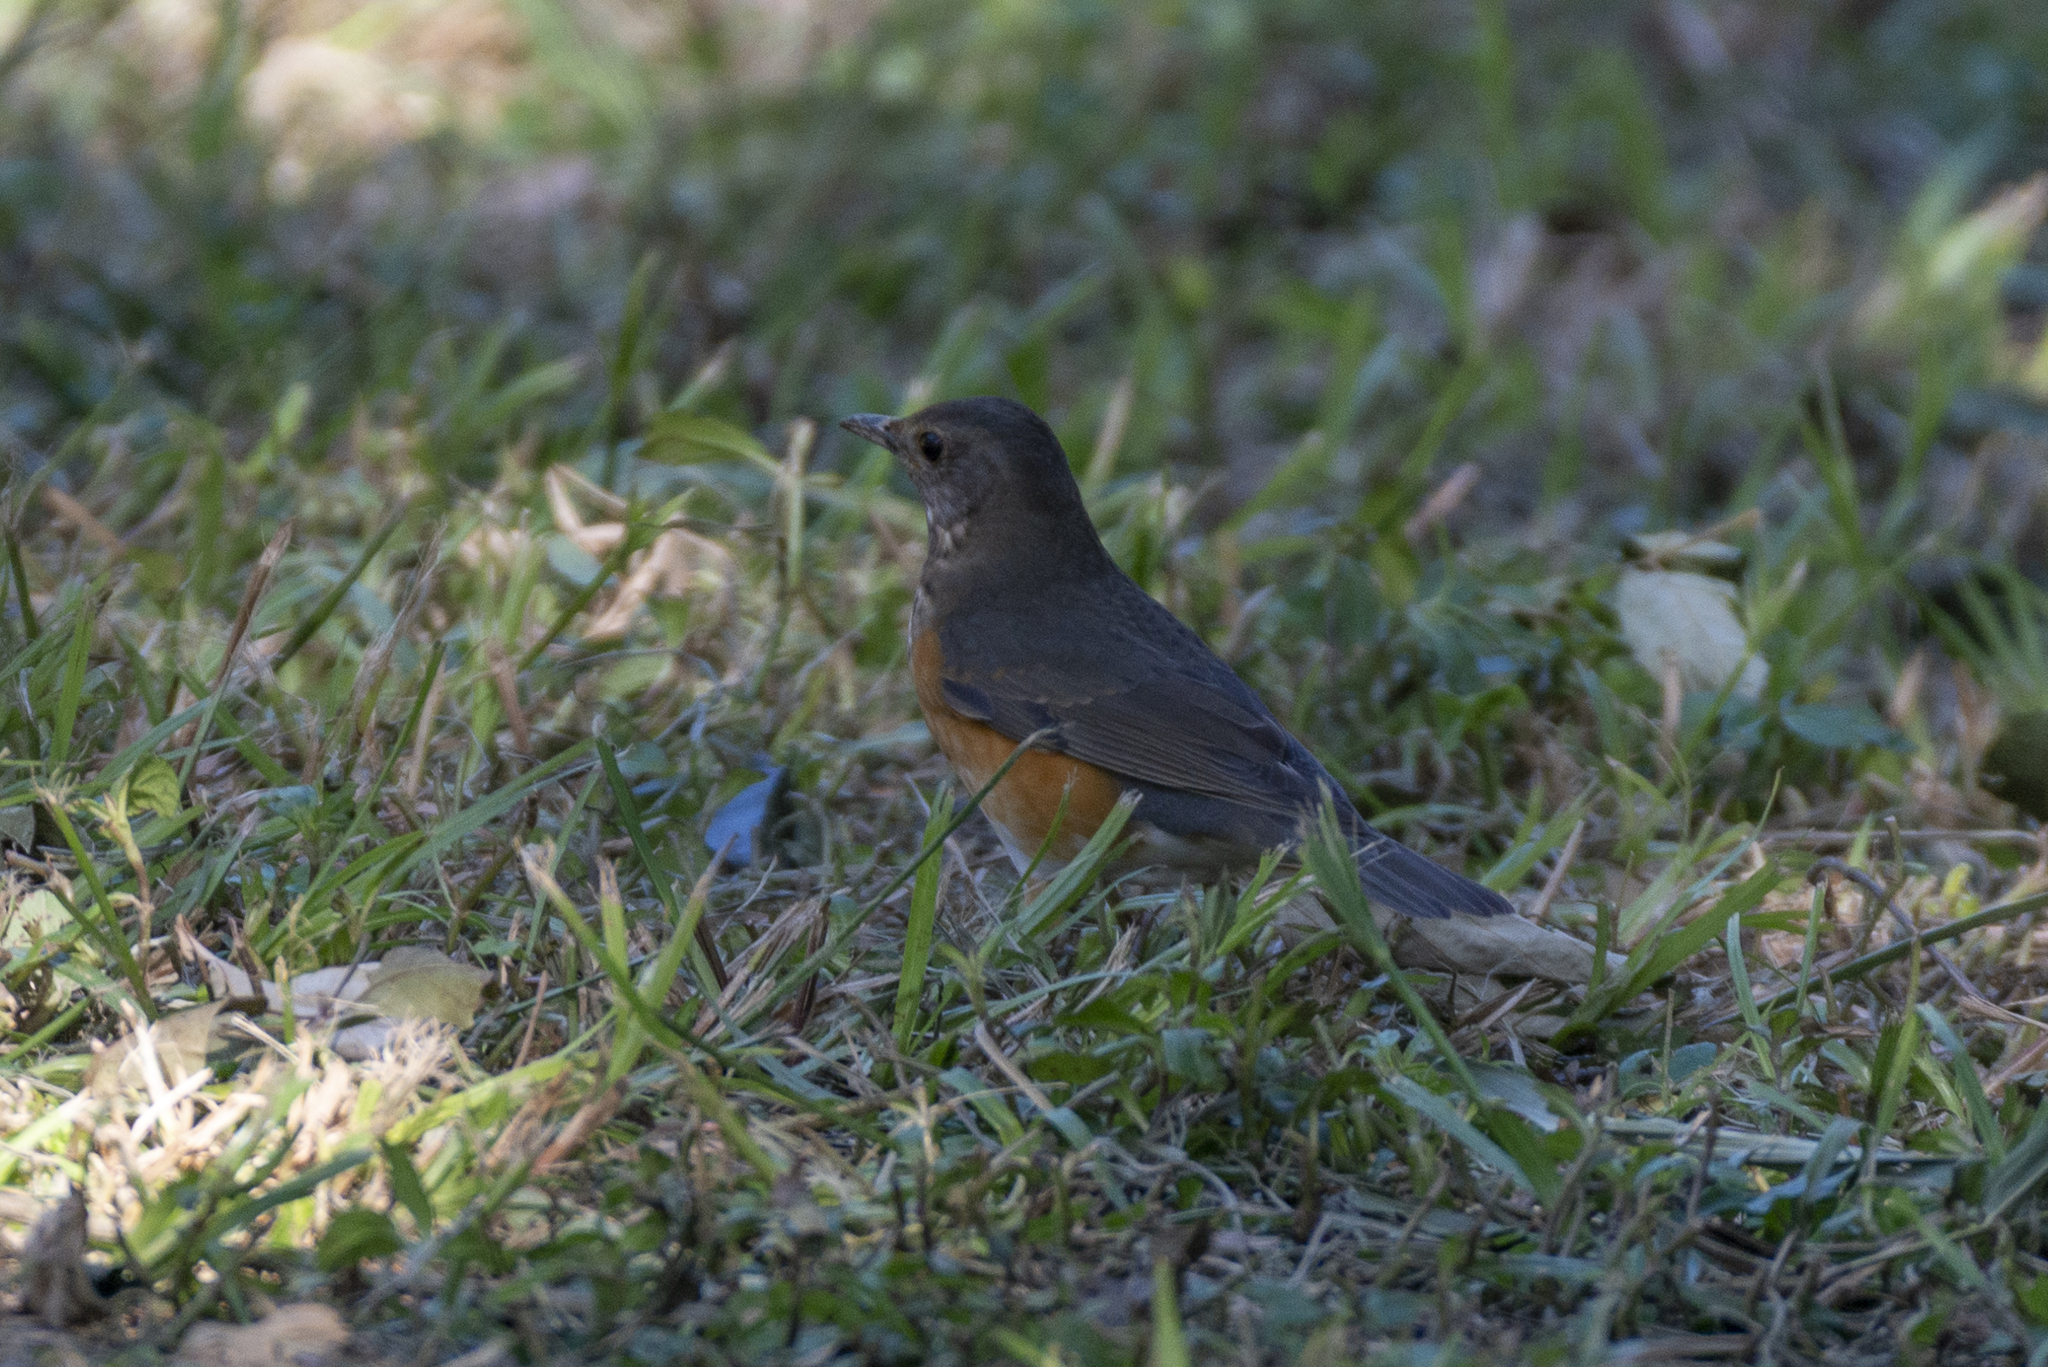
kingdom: Animalia
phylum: Chordata
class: Aves
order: Passeriformes
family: Turdidae
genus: Turdus
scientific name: Turdus hortulorum
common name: Grey-backed thrush
